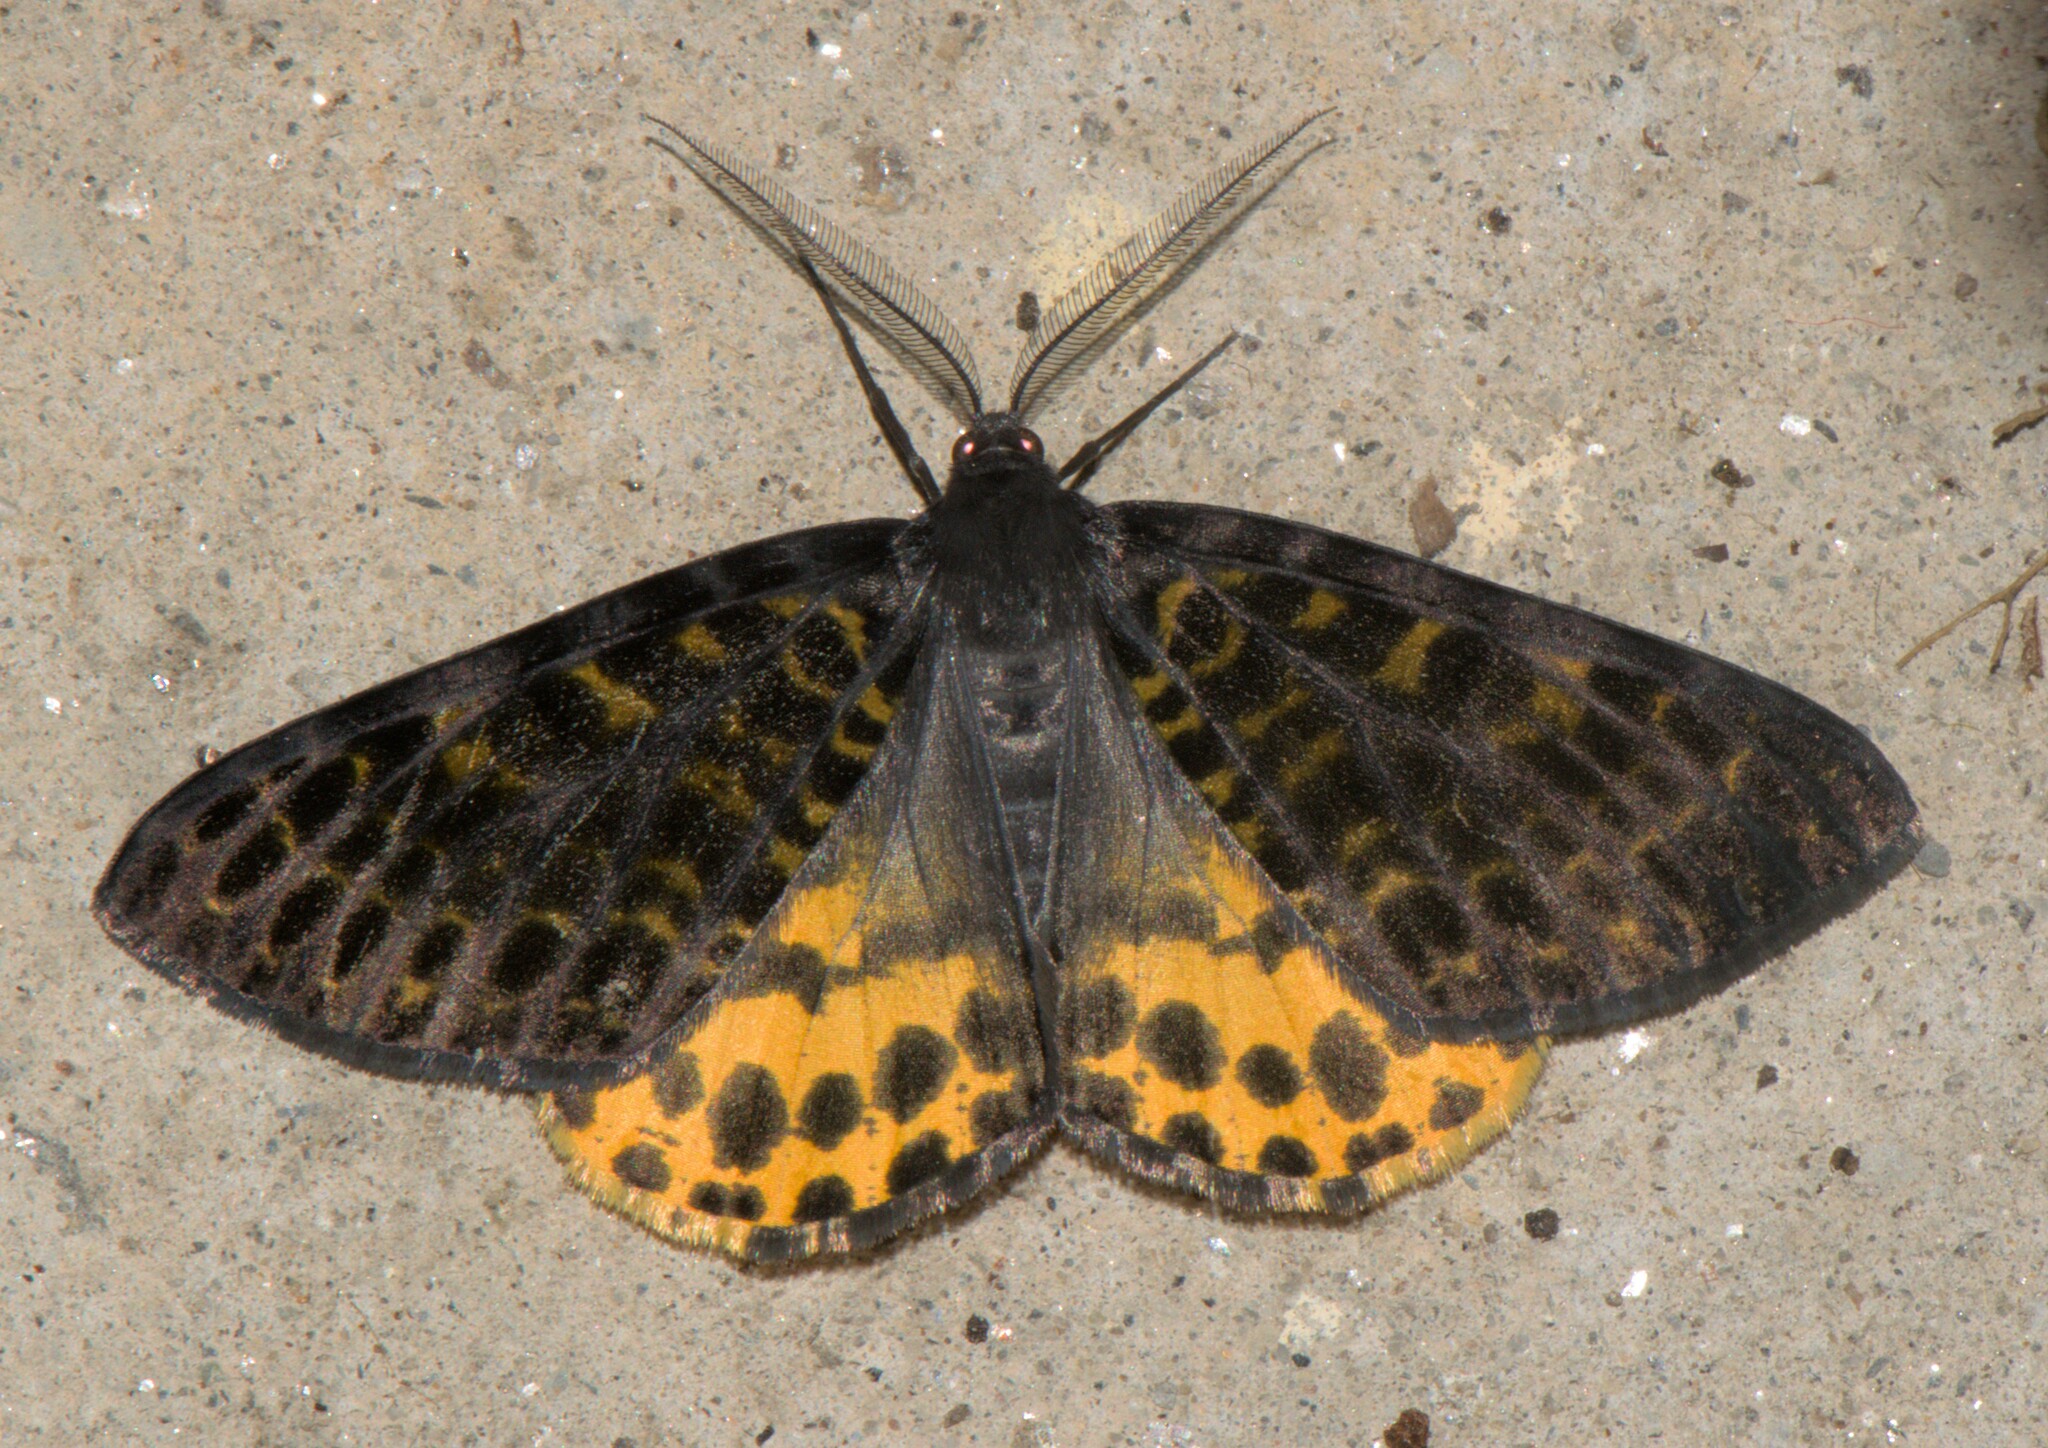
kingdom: Animalia
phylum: Arthropoda
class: Insecta
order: Lepidoptera
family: Geometridae
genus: Arichanna
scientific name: Arichanna flavinigra
